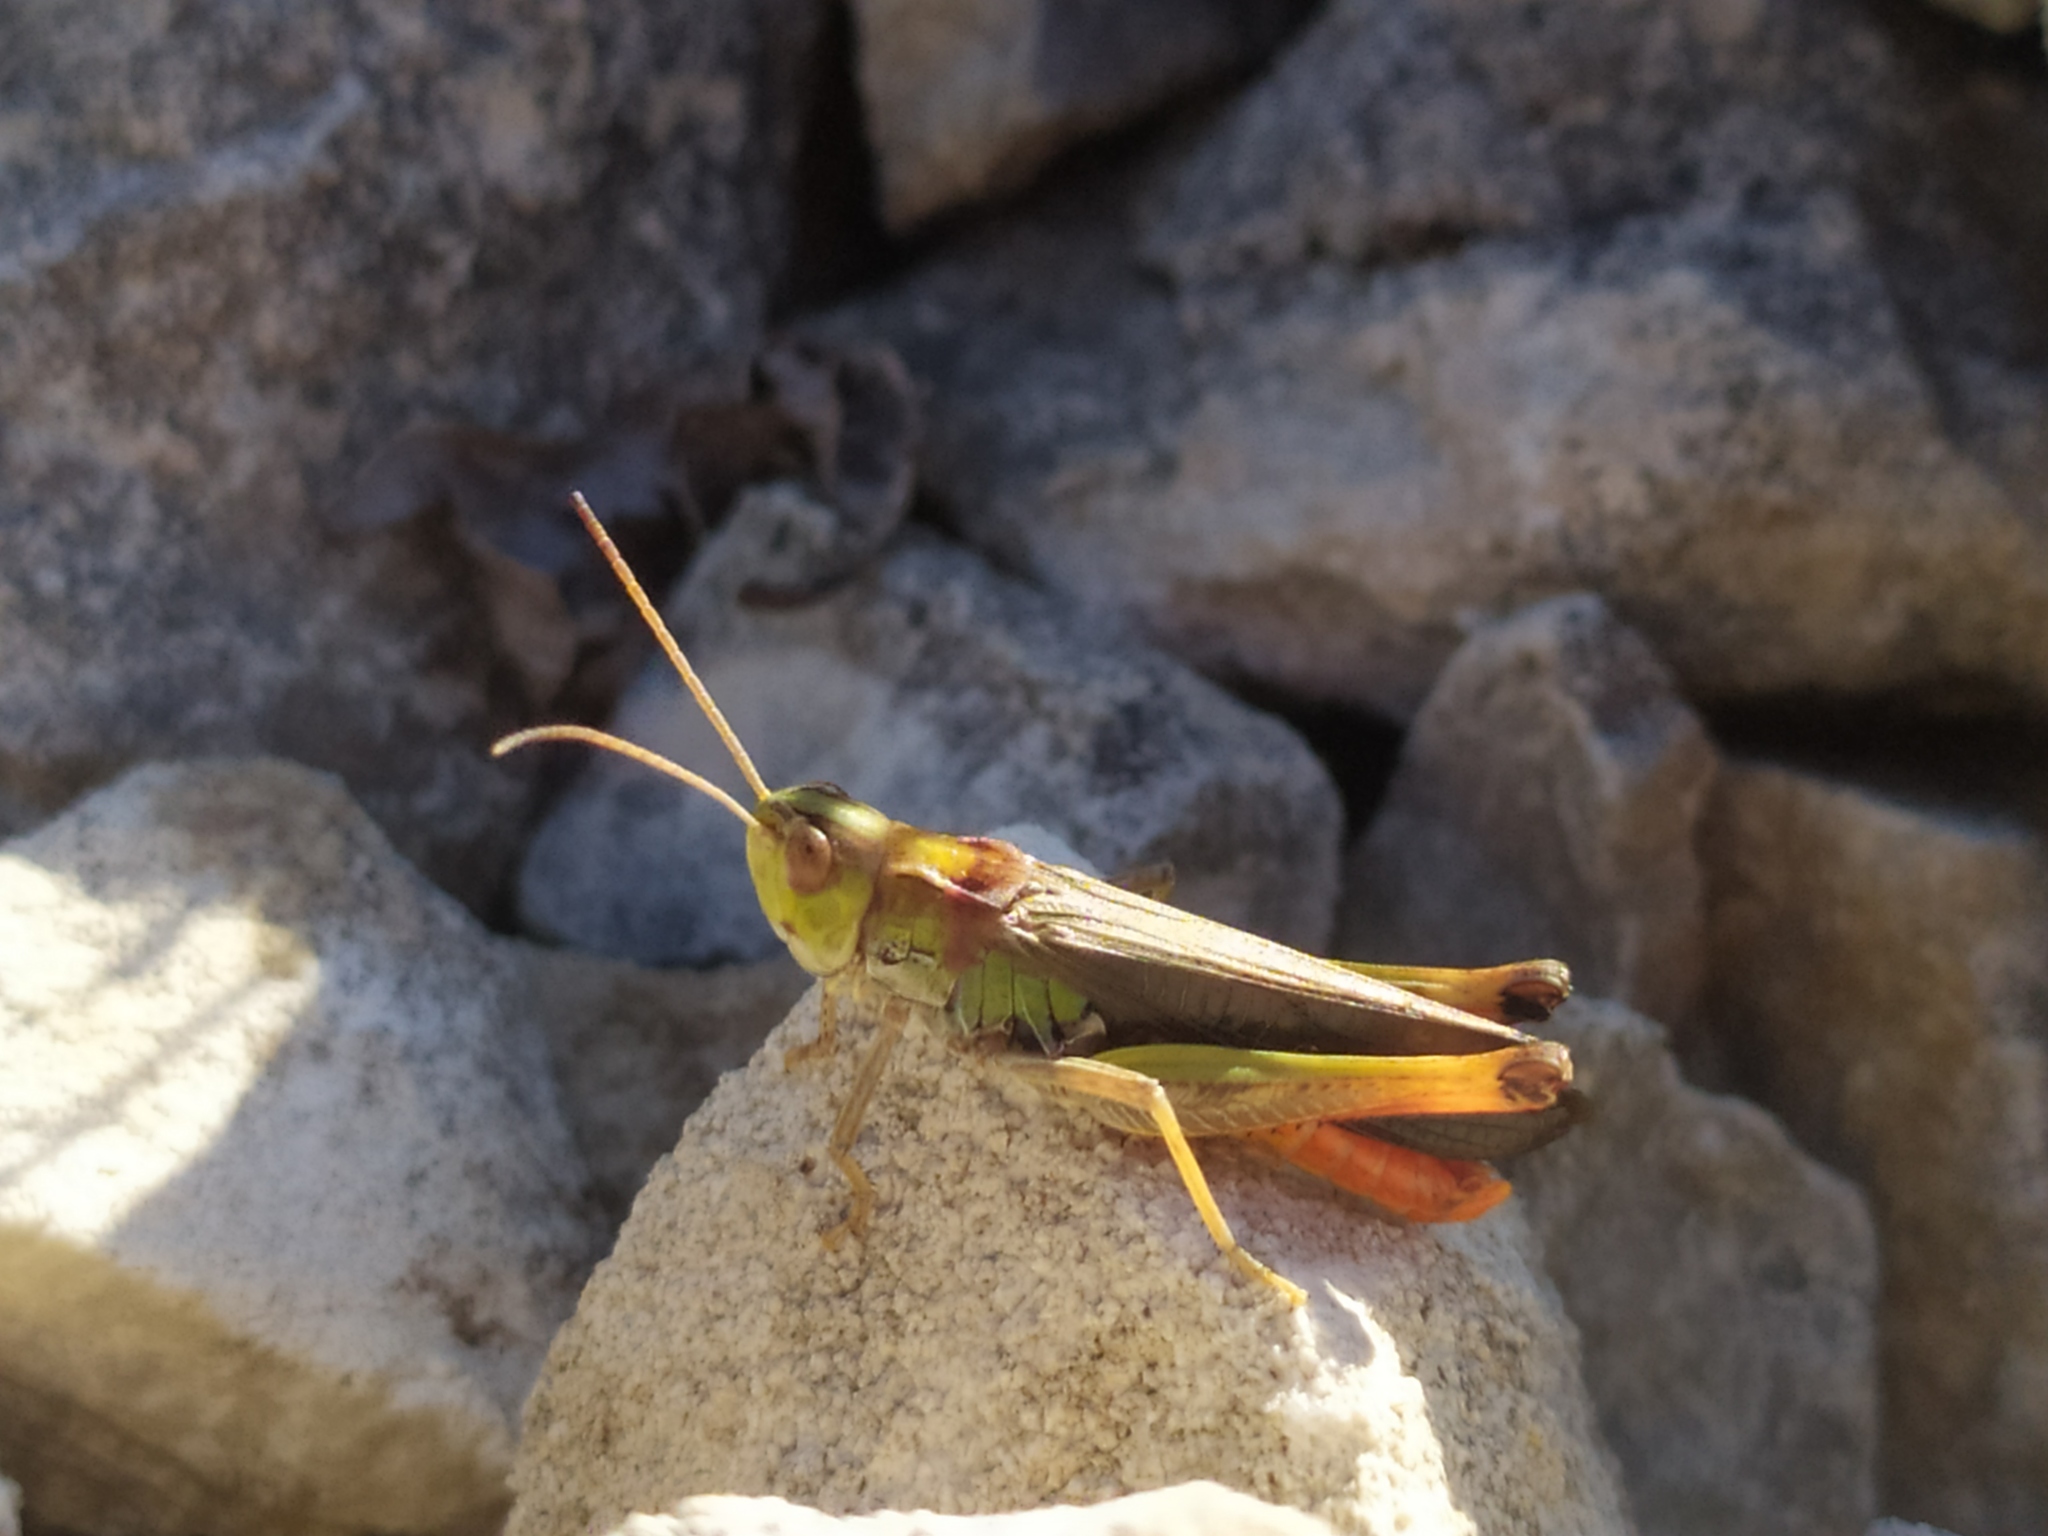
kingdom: Animalia
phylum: Arthropoda
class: Insecta
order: Orthoptera
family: Acrididae
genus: Stenobothrus
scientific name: Stenobothrus rubicundulus
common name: Wing-buzzing grasshopper
